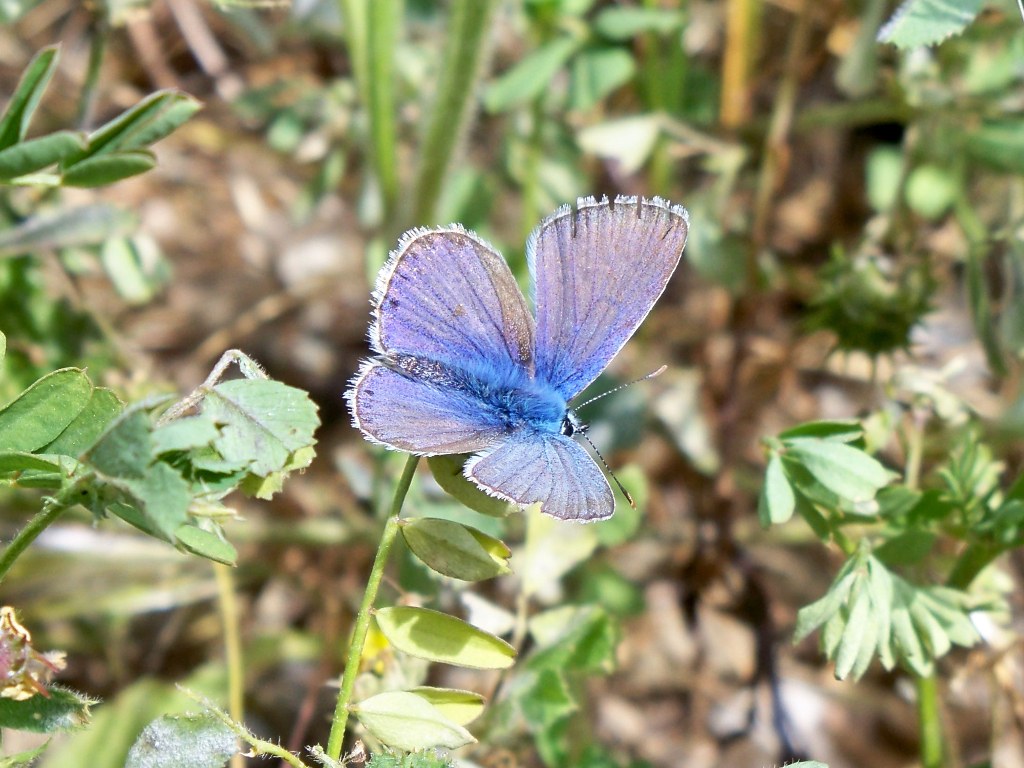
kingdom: Animalia
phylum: Arthropoda
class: Insecta
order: Lepidoptera
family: Lycaenidae
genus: Polyommatus
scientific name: Polyommatus celina
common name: Austaut's blue
